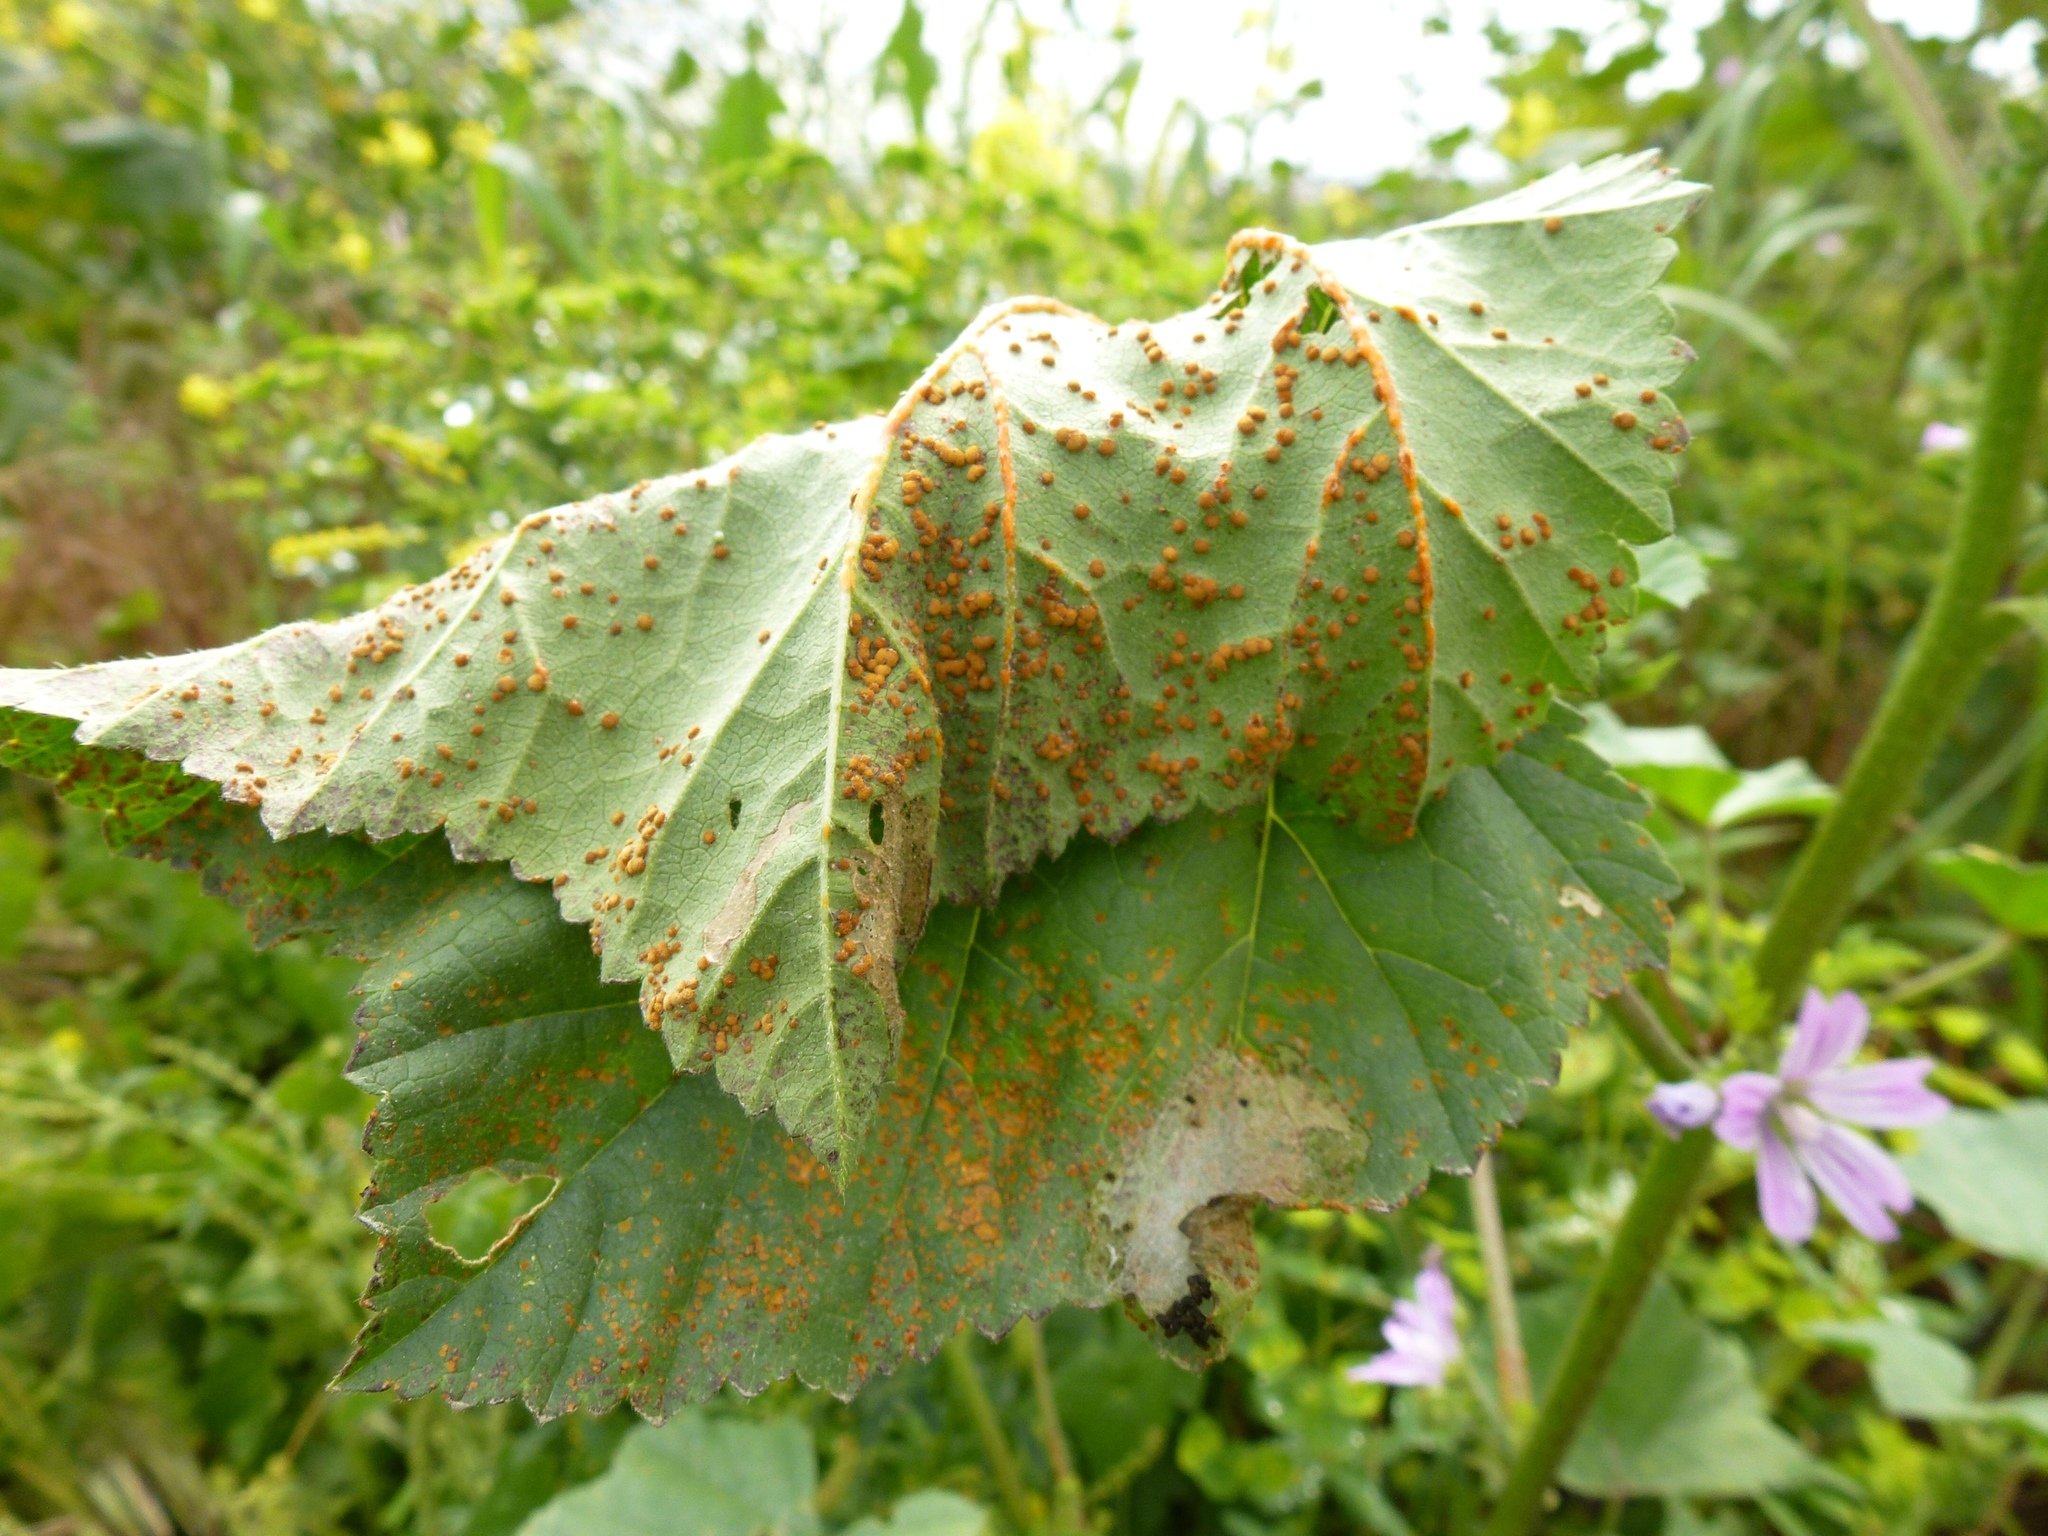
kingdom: Fungi
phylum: Basidiomycota
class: Pucciniomycetes
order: Pucciniales
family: Pucciniaceae
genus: Puccinia
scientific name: Puccinia malvacearum
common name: Hollyhock rust
